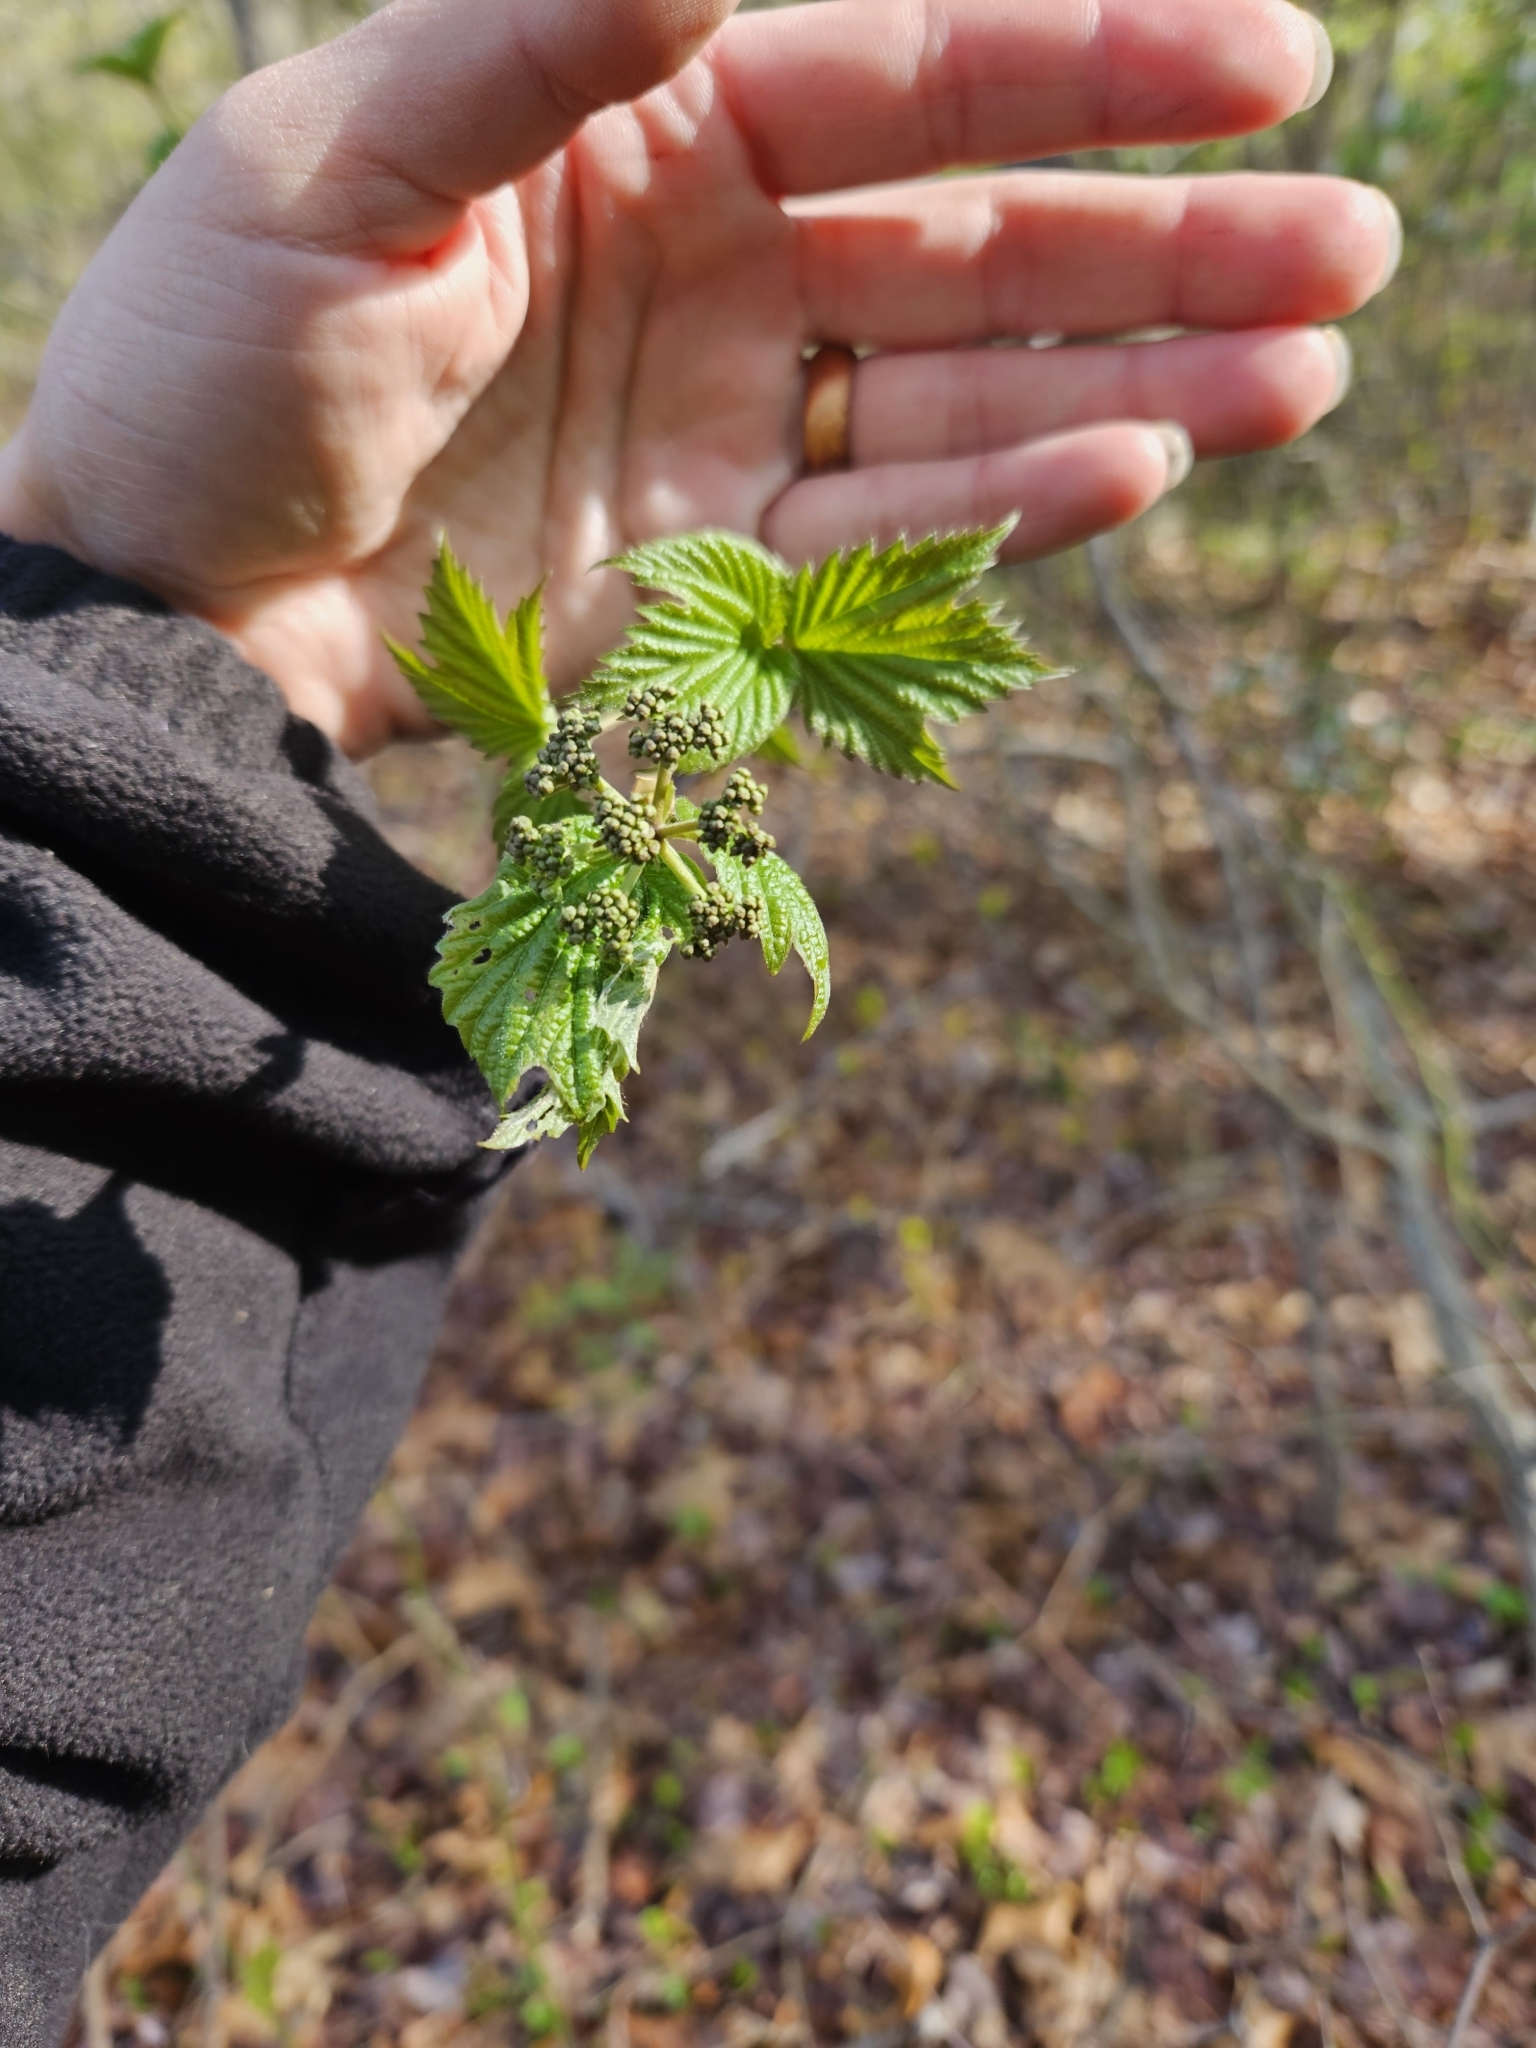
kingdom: Plantae
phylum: Tracheophyta
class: Magnoliopsida
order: Dipsacales
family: Viburnaceae
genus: Viburnum
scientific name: Viburnum acerifolium
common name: Dockmackie
